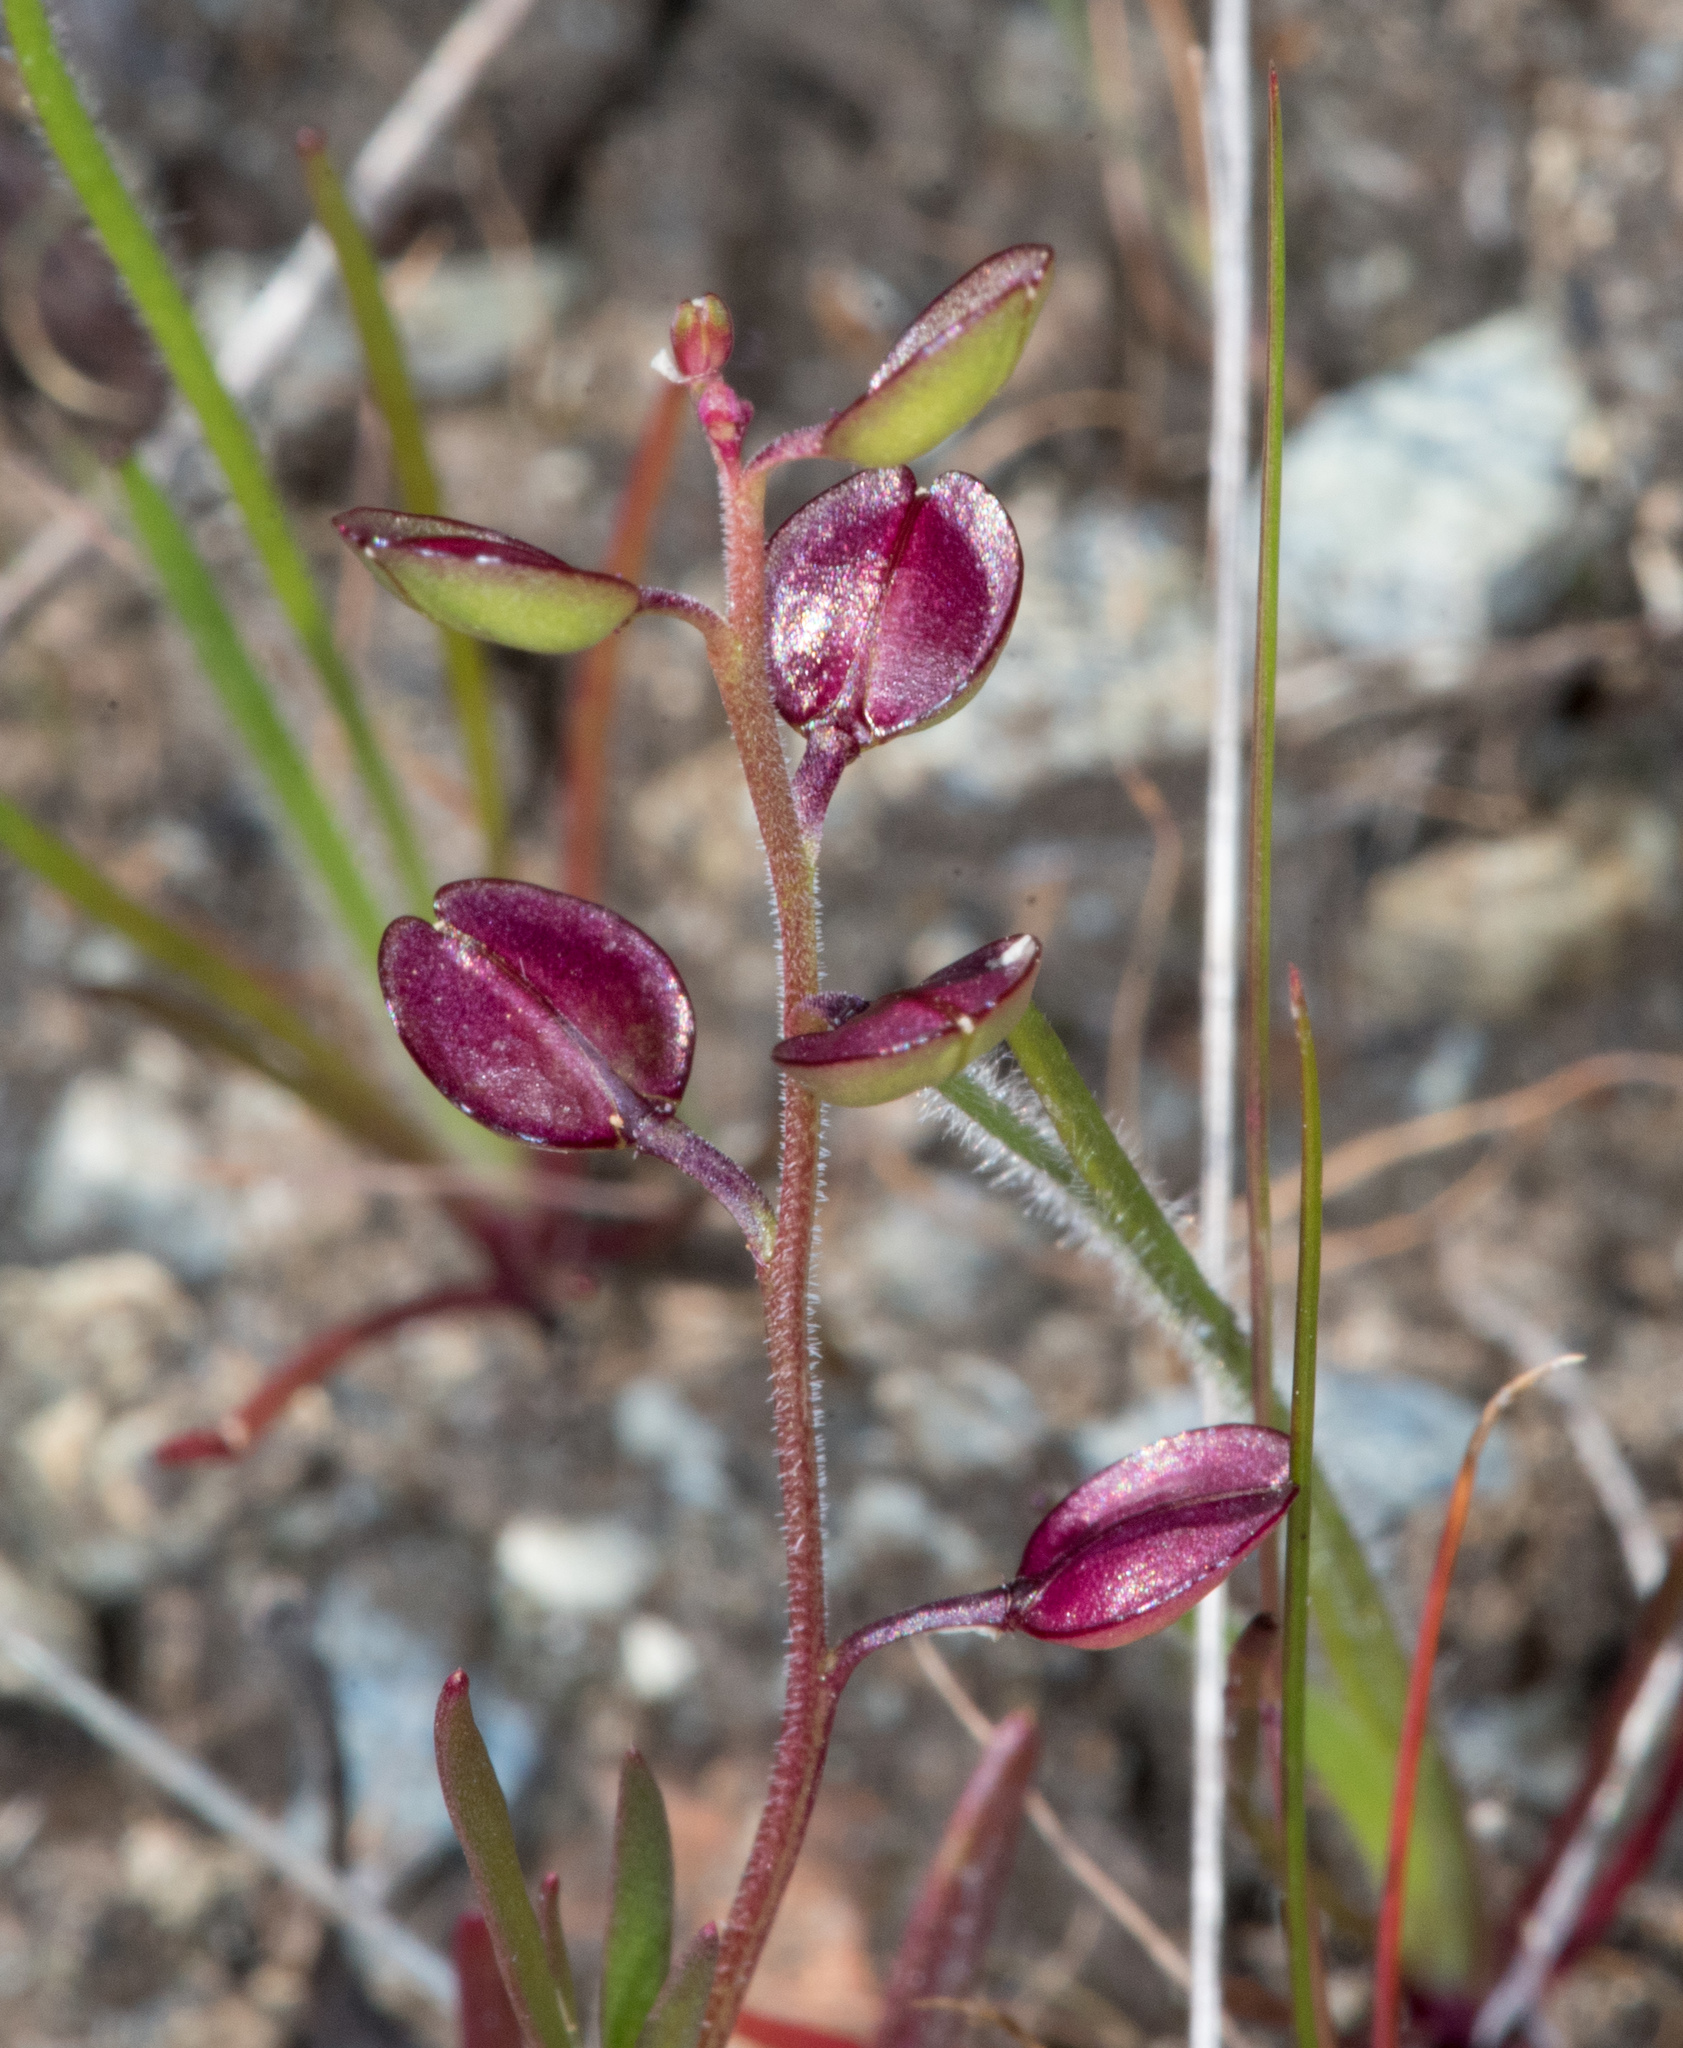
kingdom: Plantae
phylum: Tracheophyta
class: Magnoliopsida
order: Brassicales
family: Brassicaceae
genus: Lepidium
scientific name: Lepidium nitidum
